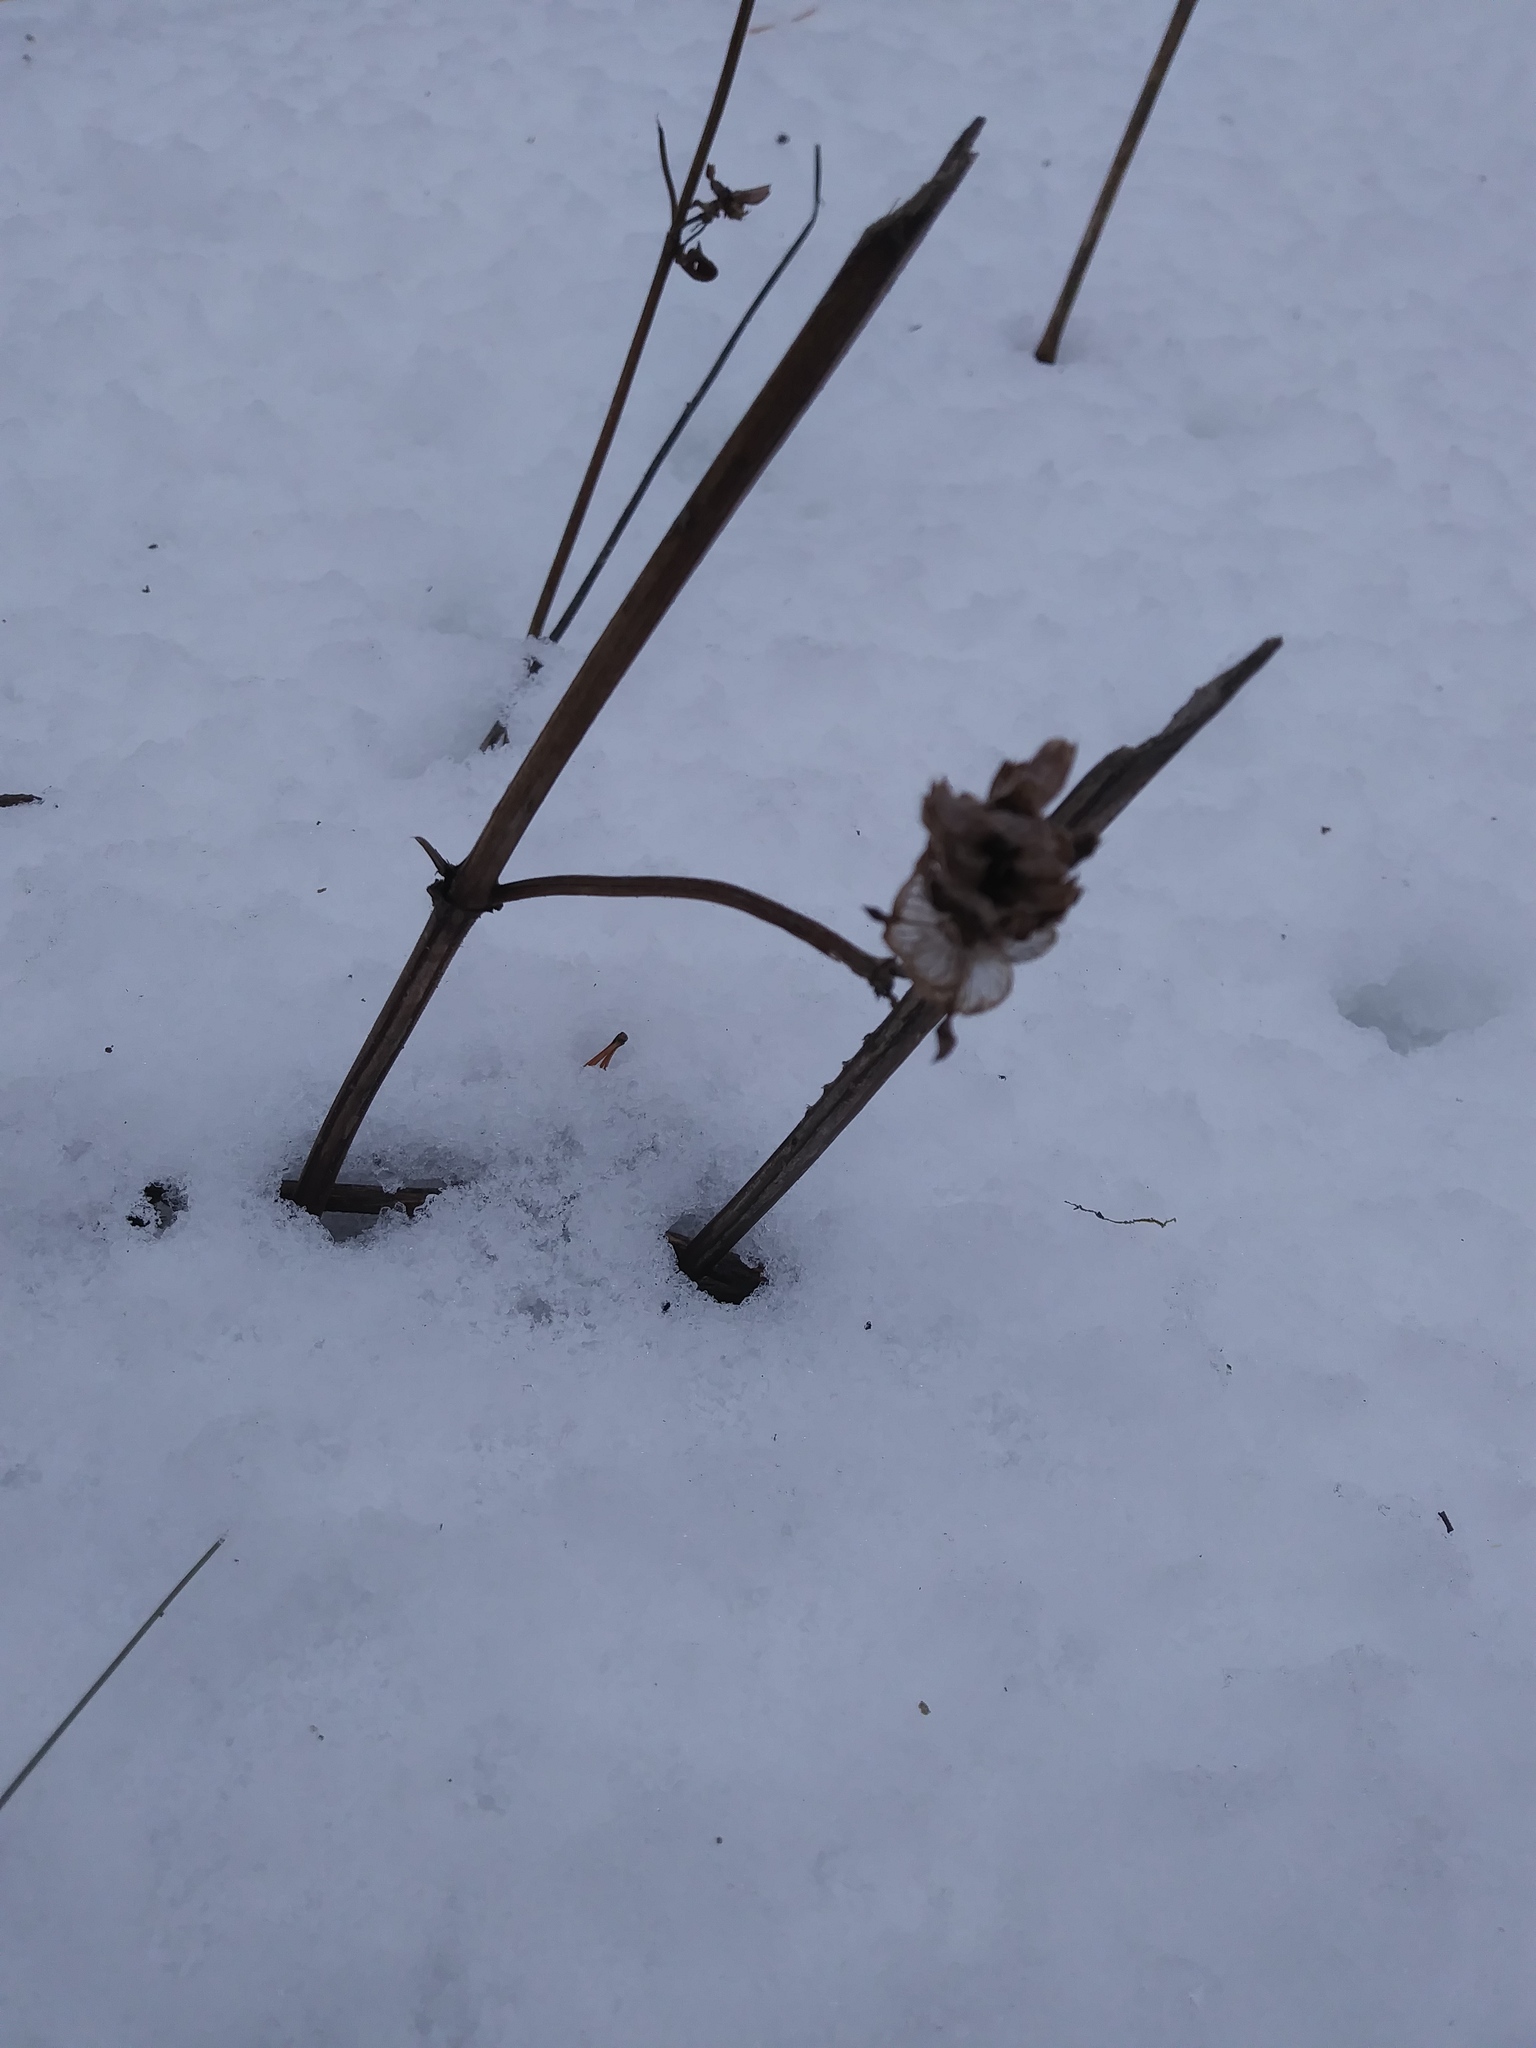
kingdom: Plantae
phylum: Tracheophyta
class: Magnoliopsida
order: Lamiales
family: Lamiaceae
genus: Prunella
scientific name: Prunella vulgaris
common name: Heal-all
